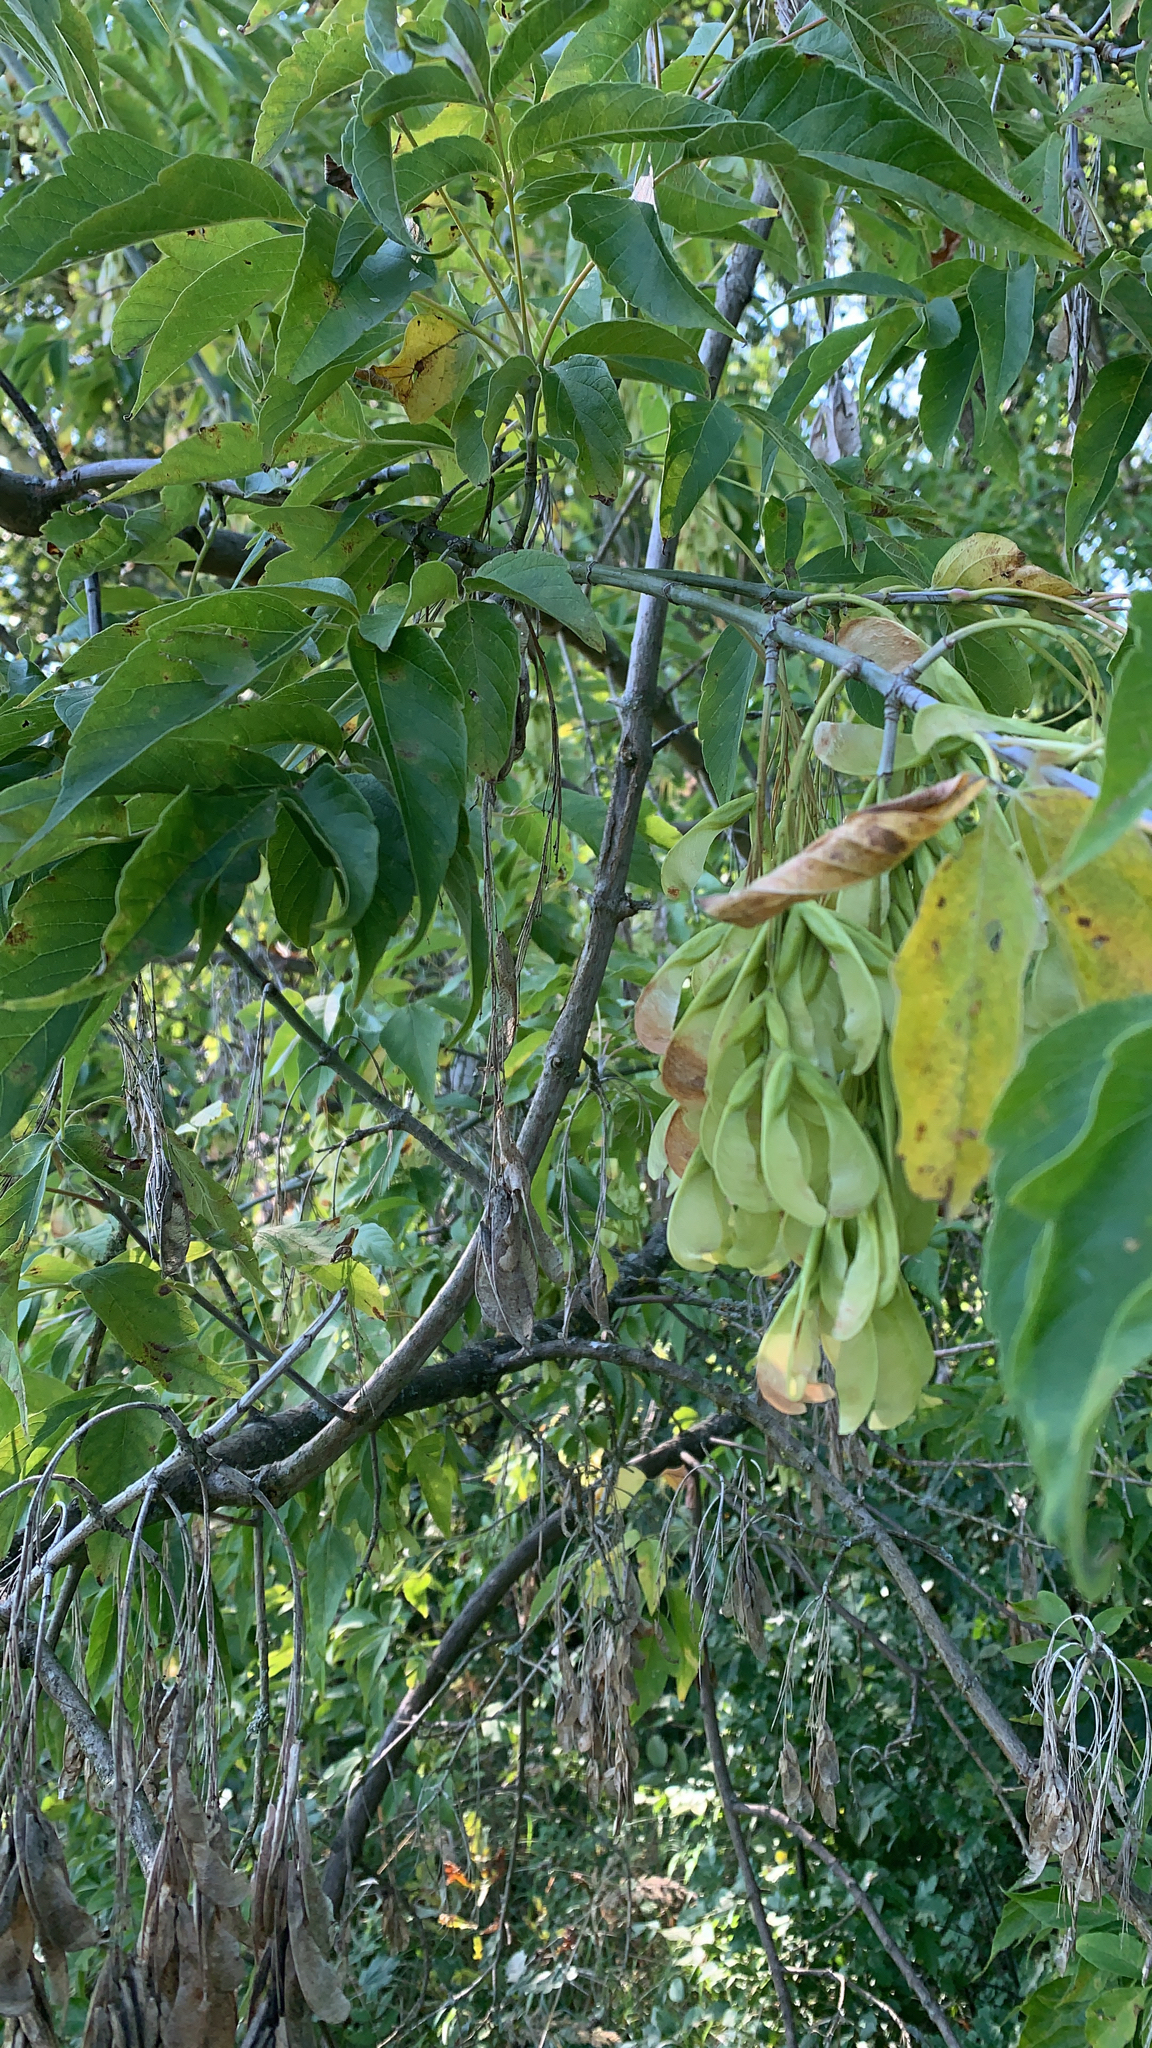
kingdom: Plantae
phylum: Tracheophyta
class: Magnoliopsida
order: Sapindales
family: Sapindaceae
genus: Acer
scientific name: Acer negundo
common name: Ashleaf maple
